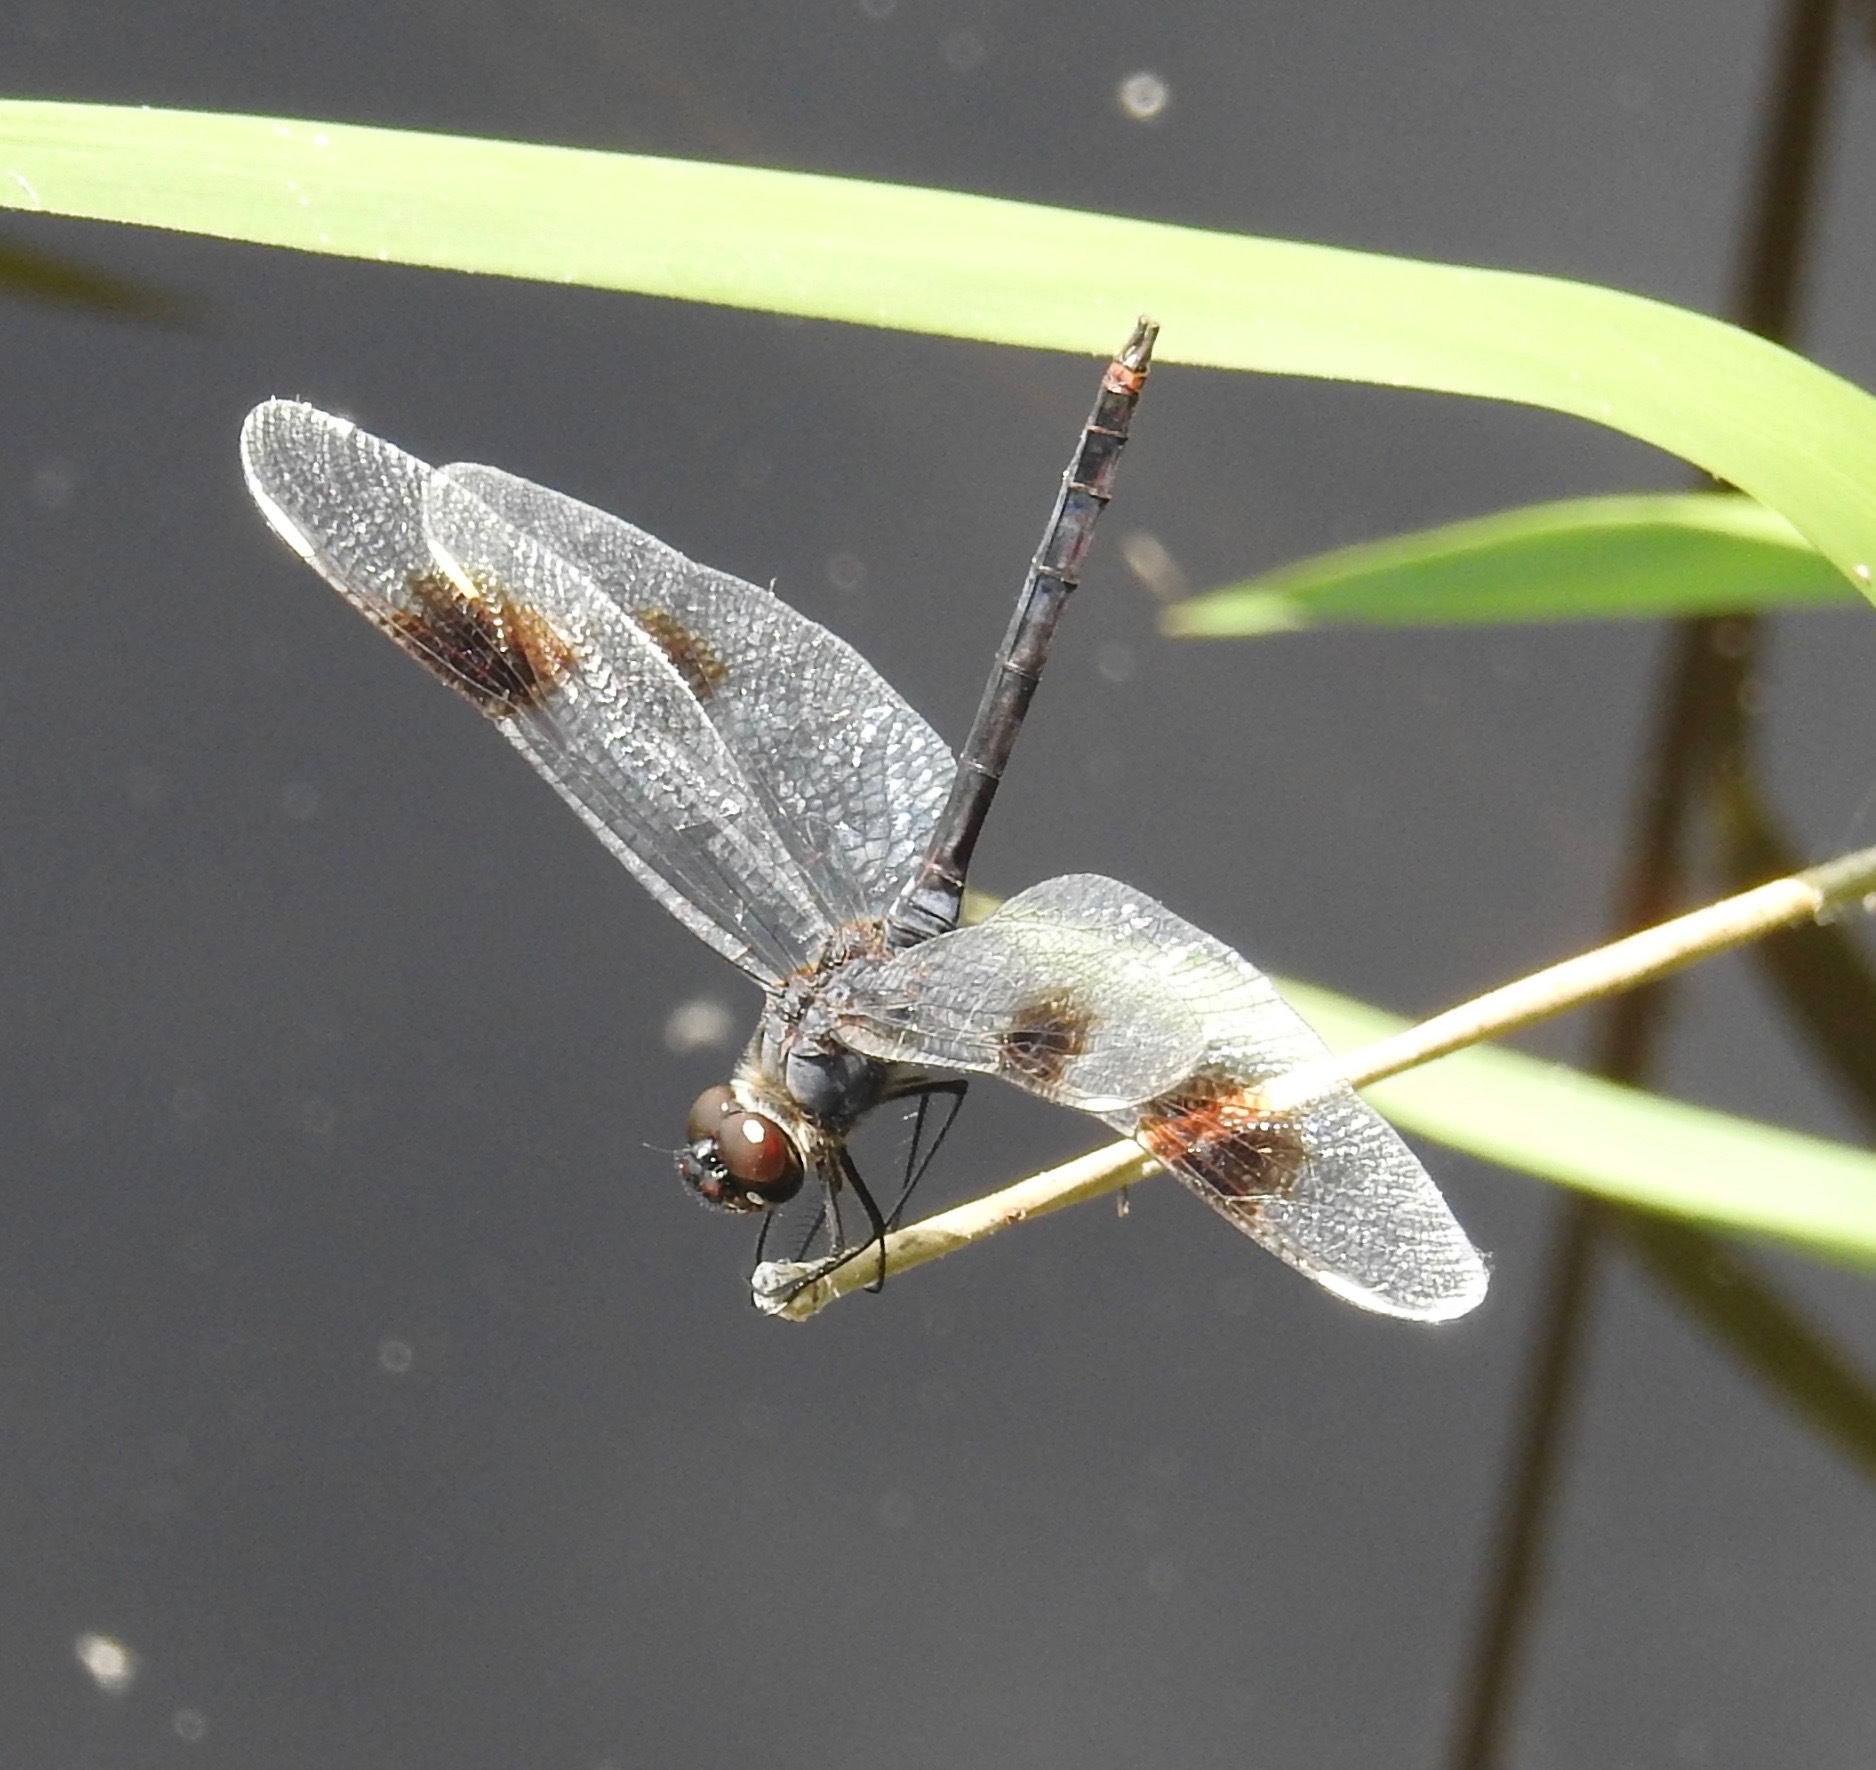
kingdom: Animalia
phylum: Arthropoda
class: Insecta
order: Odonata
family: Libellulidae
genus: Brachymesia
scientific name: Brachymesia gravida
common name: Four-spotted pennant
